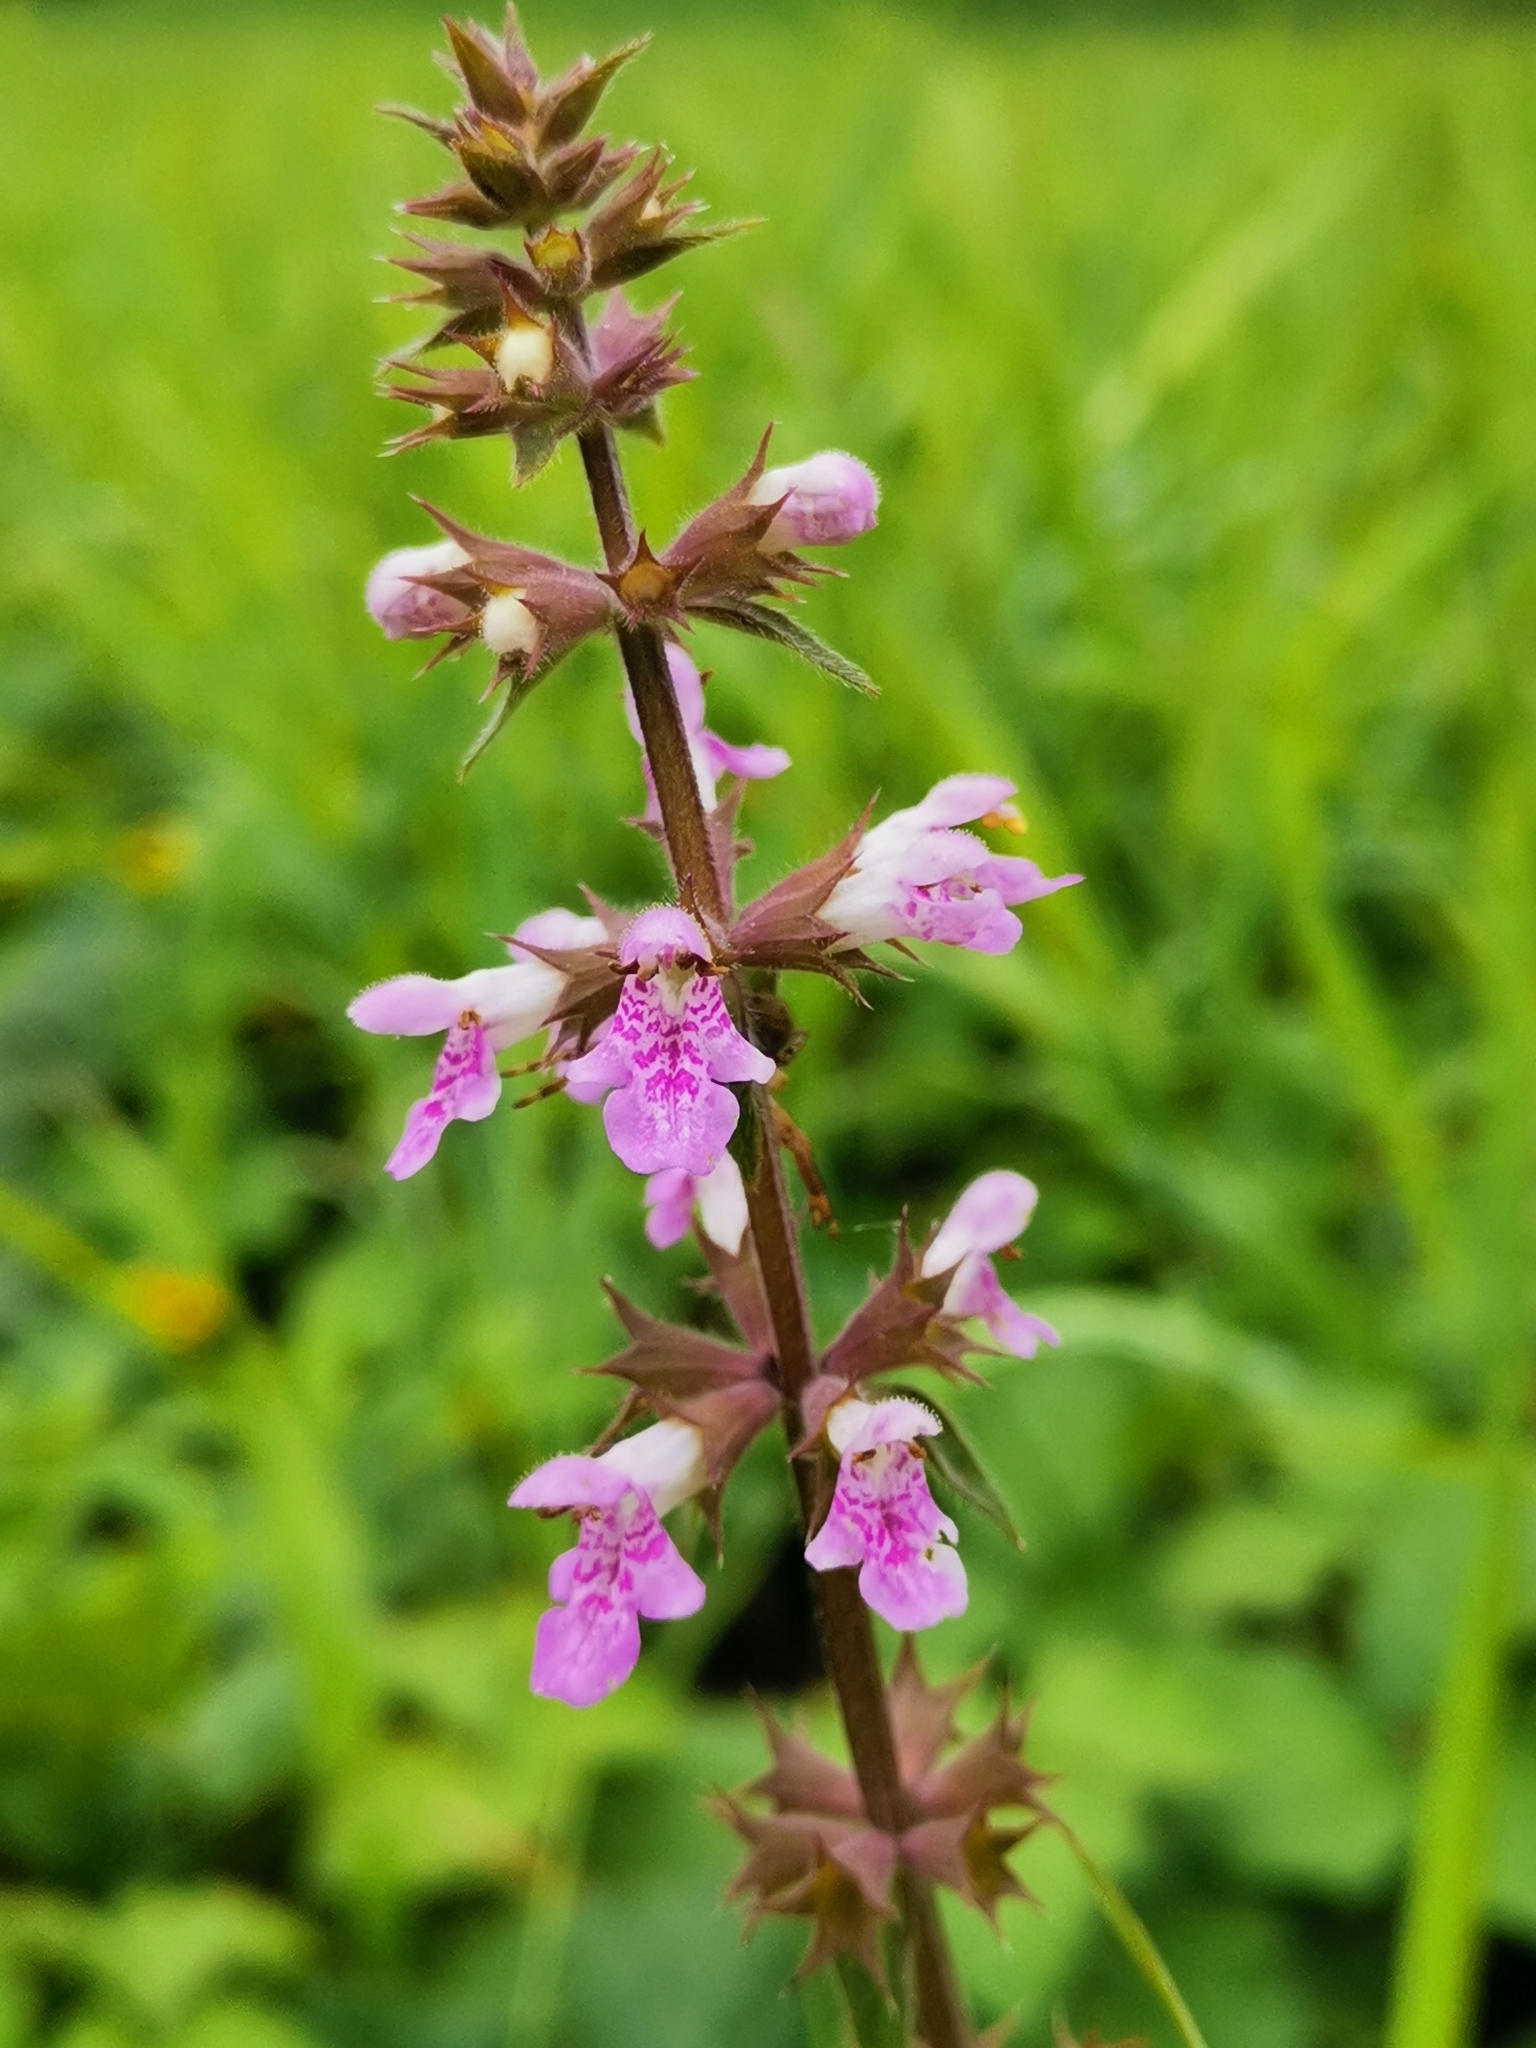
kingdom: Plantae
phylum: Tracheophyta
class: Magnoliopsida
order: Lamiales
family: Lamiaceae
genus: Stachys
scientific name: Stachys palustris
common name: Marsh woundwort
